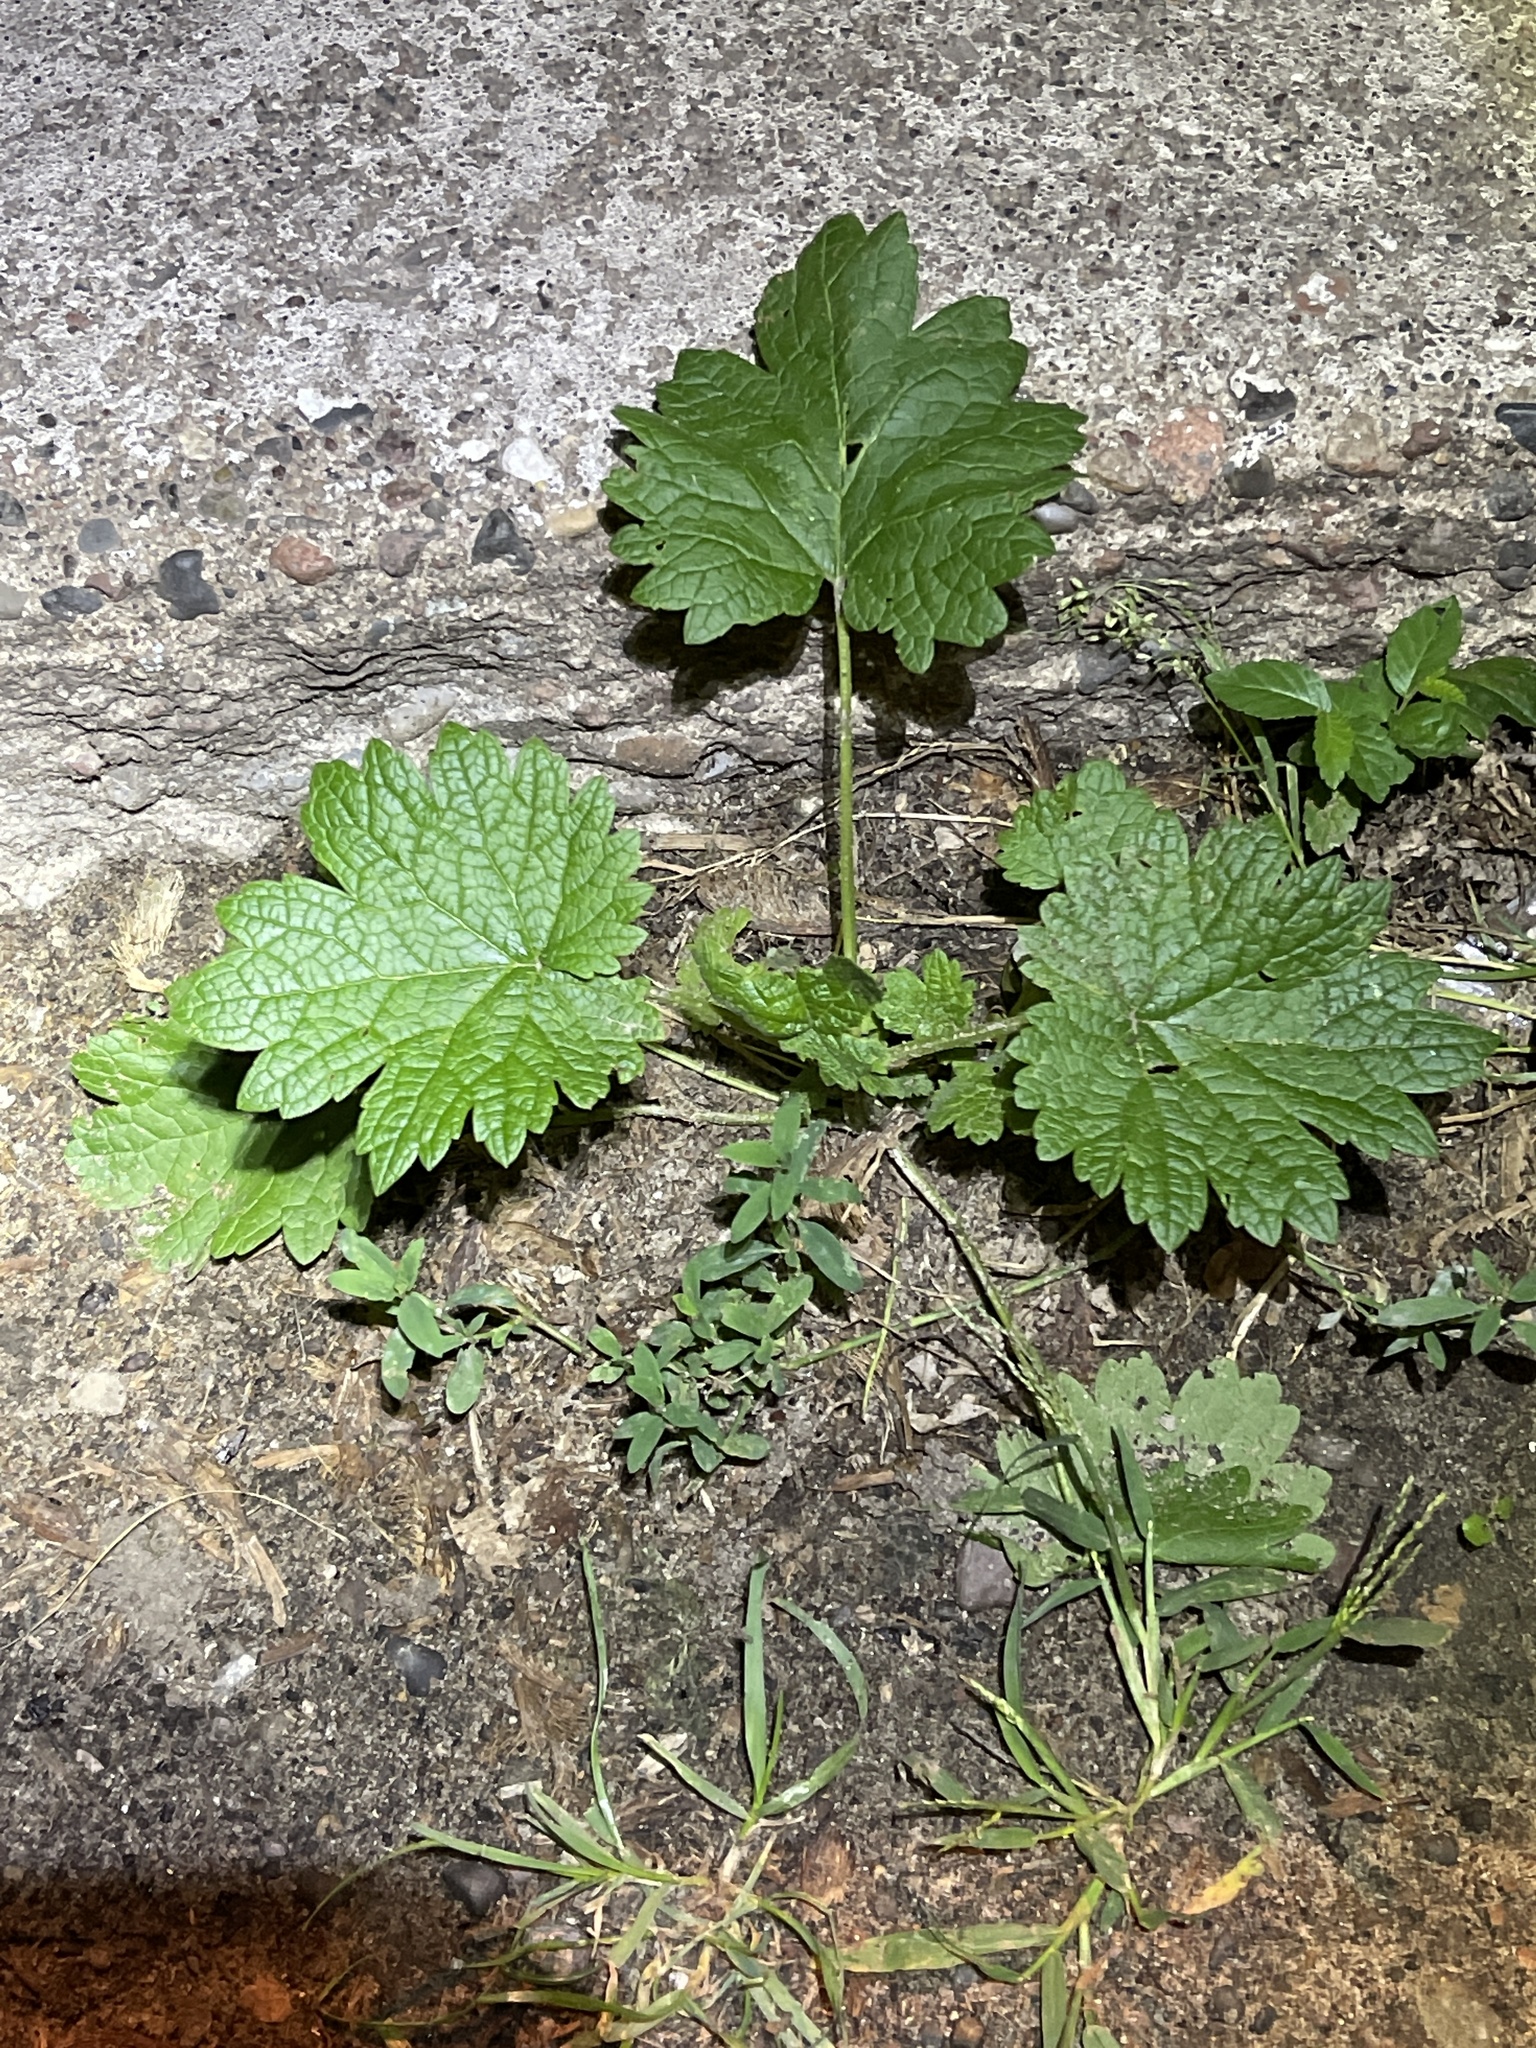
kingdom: Plantae
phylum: Tracheophyta
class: Magnoliopsida
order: Lamiales
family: Lamiaceae
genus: Leonurus
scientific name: Leonurus cardiaca
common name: Motherwort
